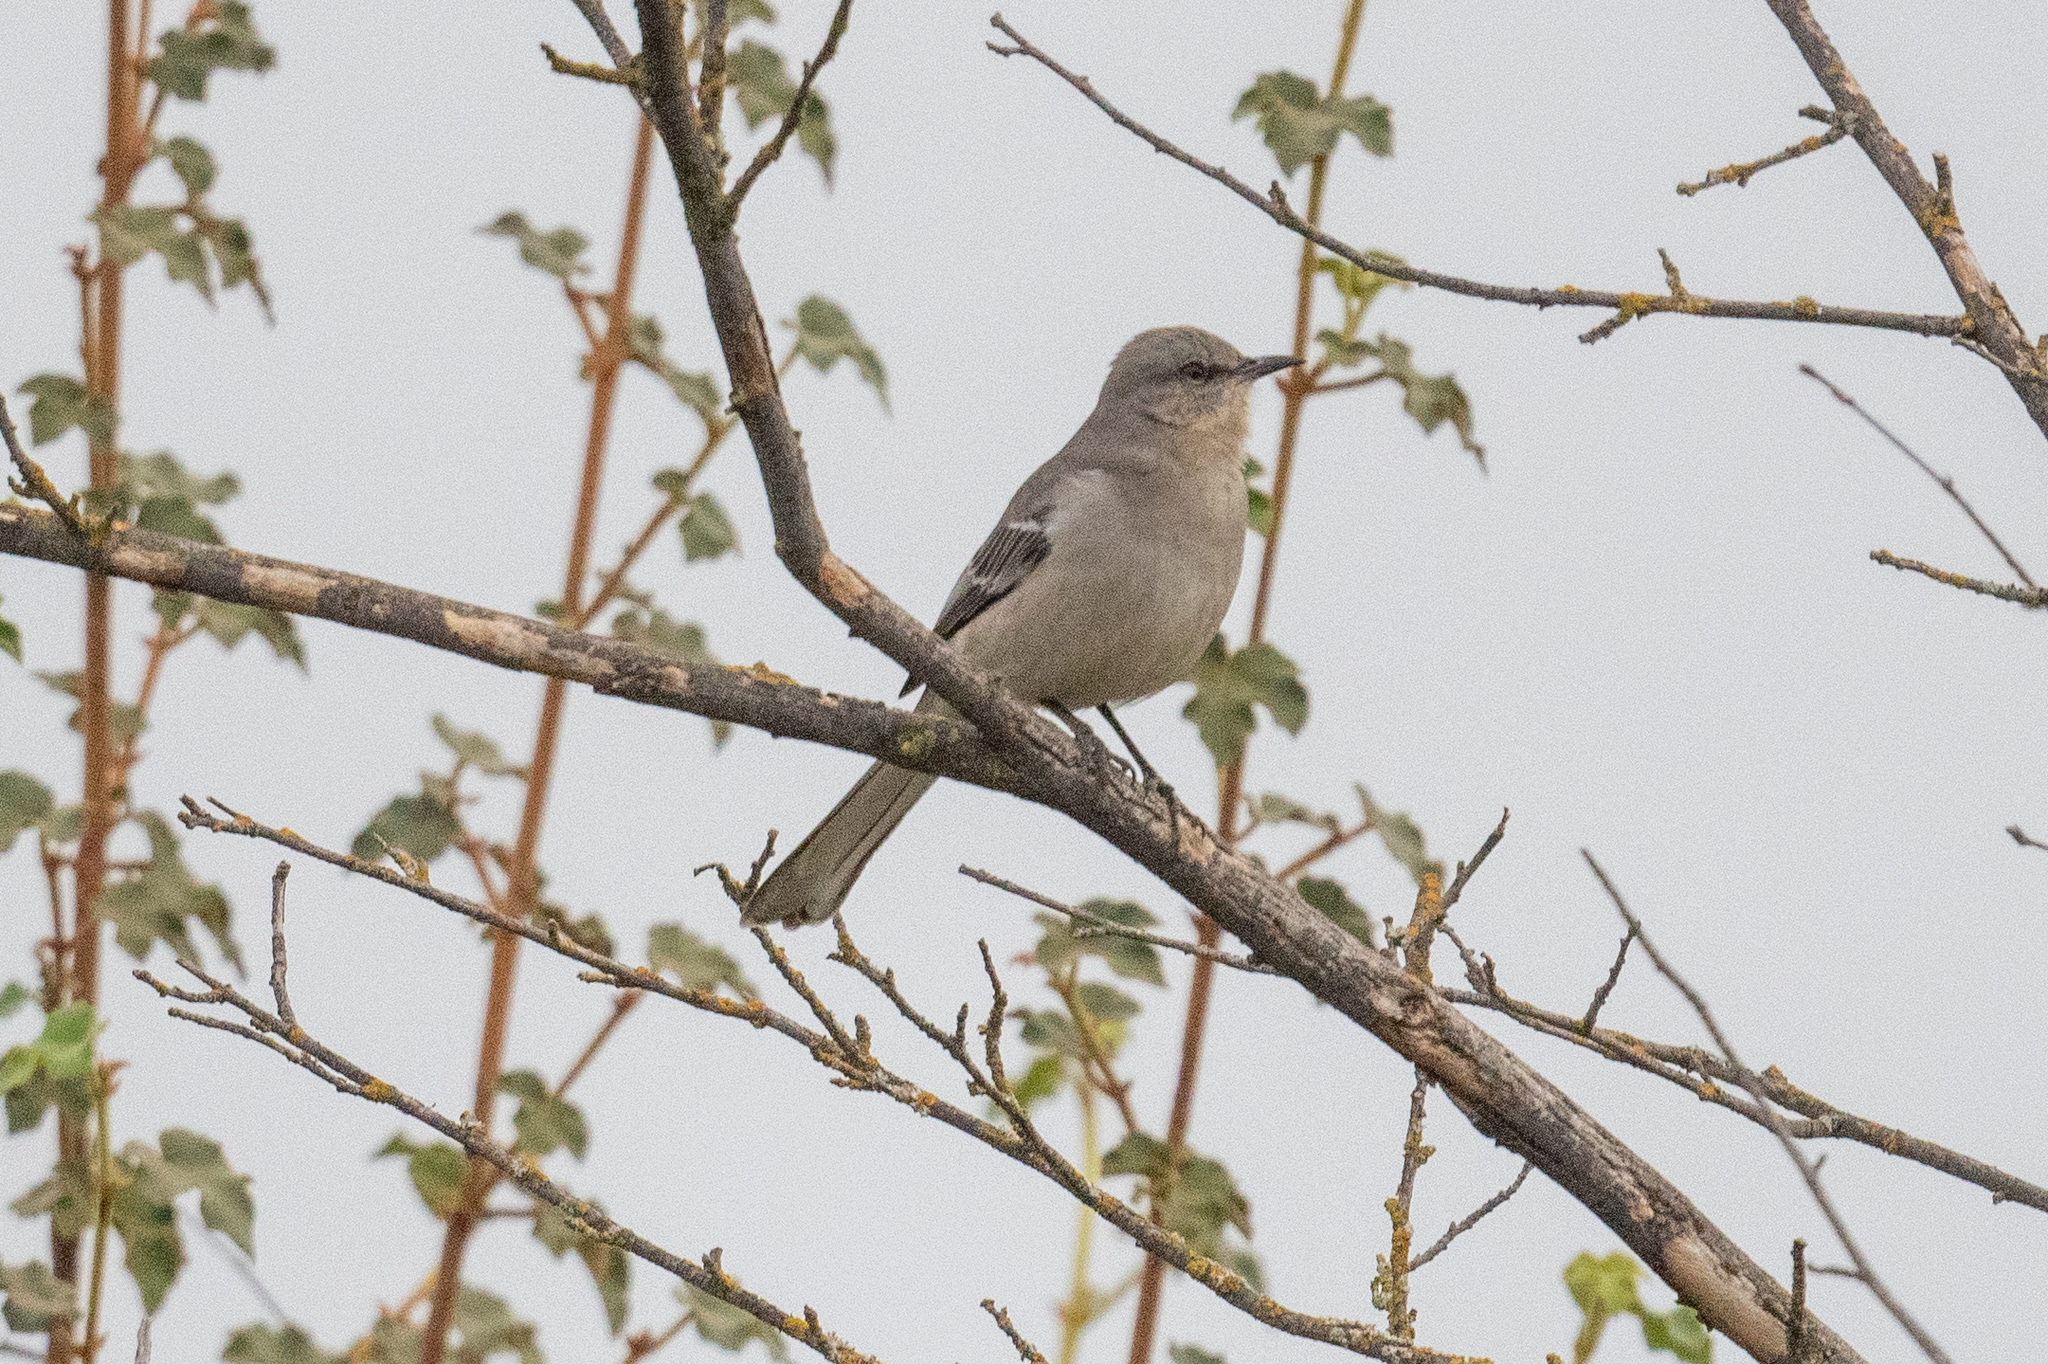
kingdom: Animalia
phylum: Chordata
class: Aves
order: Passeriformes
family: Mimidae
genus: Mimus
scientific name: Mimus polyglottos
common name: Northern mockingbird
